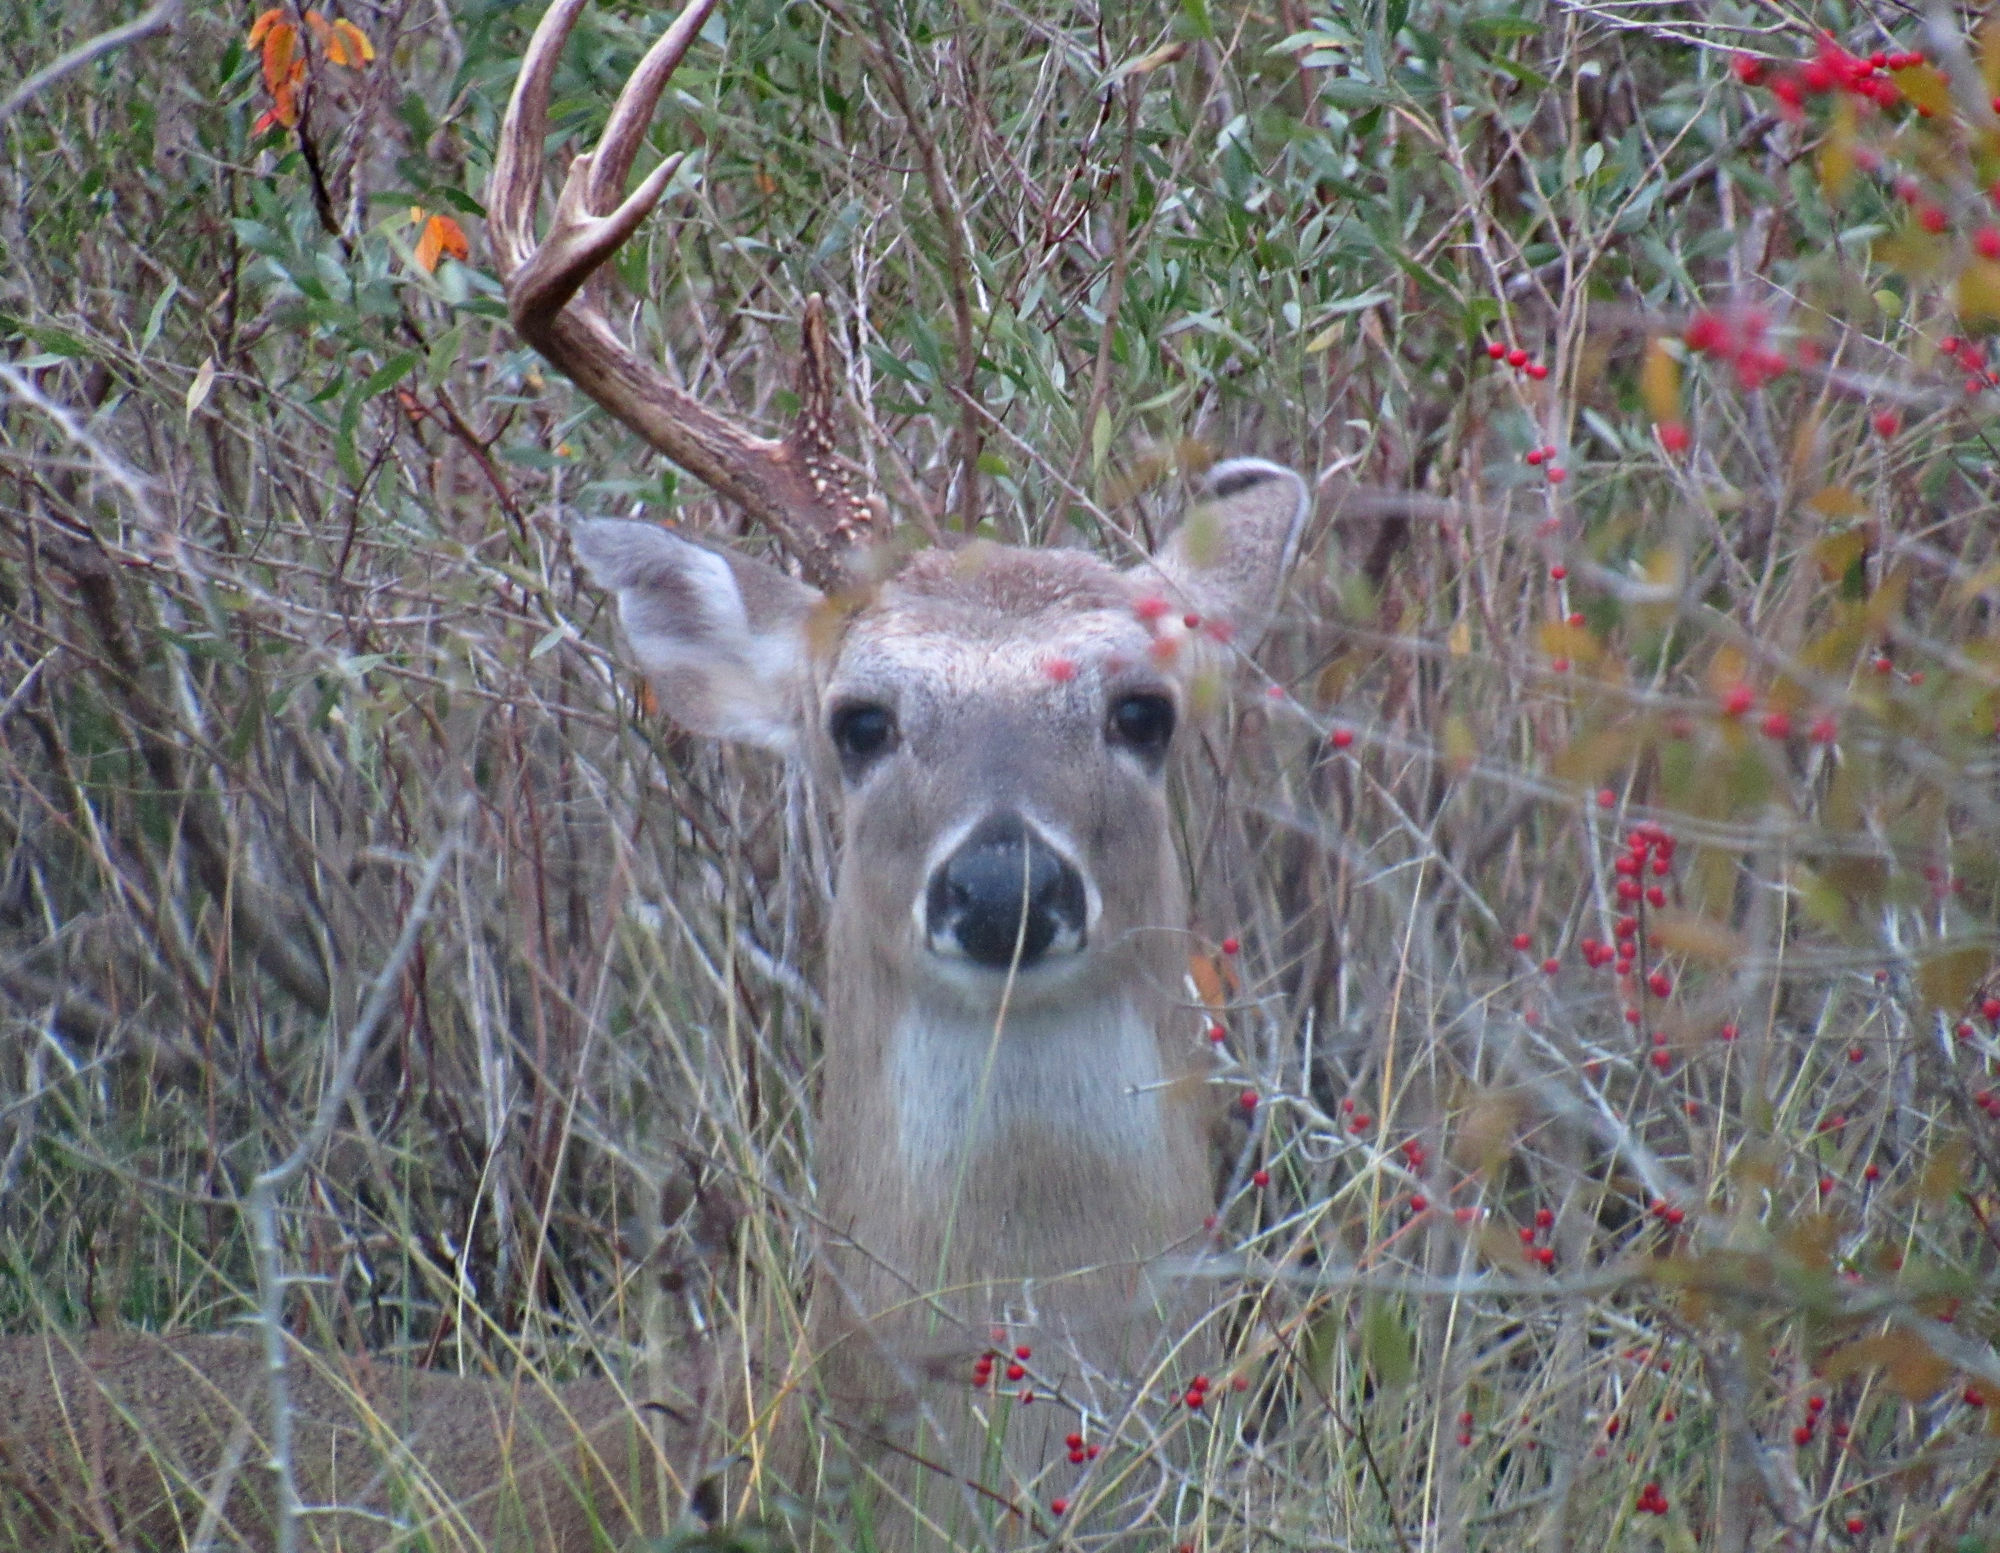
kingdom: Animalia
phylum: Chordata
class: Mammalia
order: Artiodactyla
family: Cervidae
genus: Odocoileus
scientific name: Odocoileus virginianus
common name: White-tailed deer
